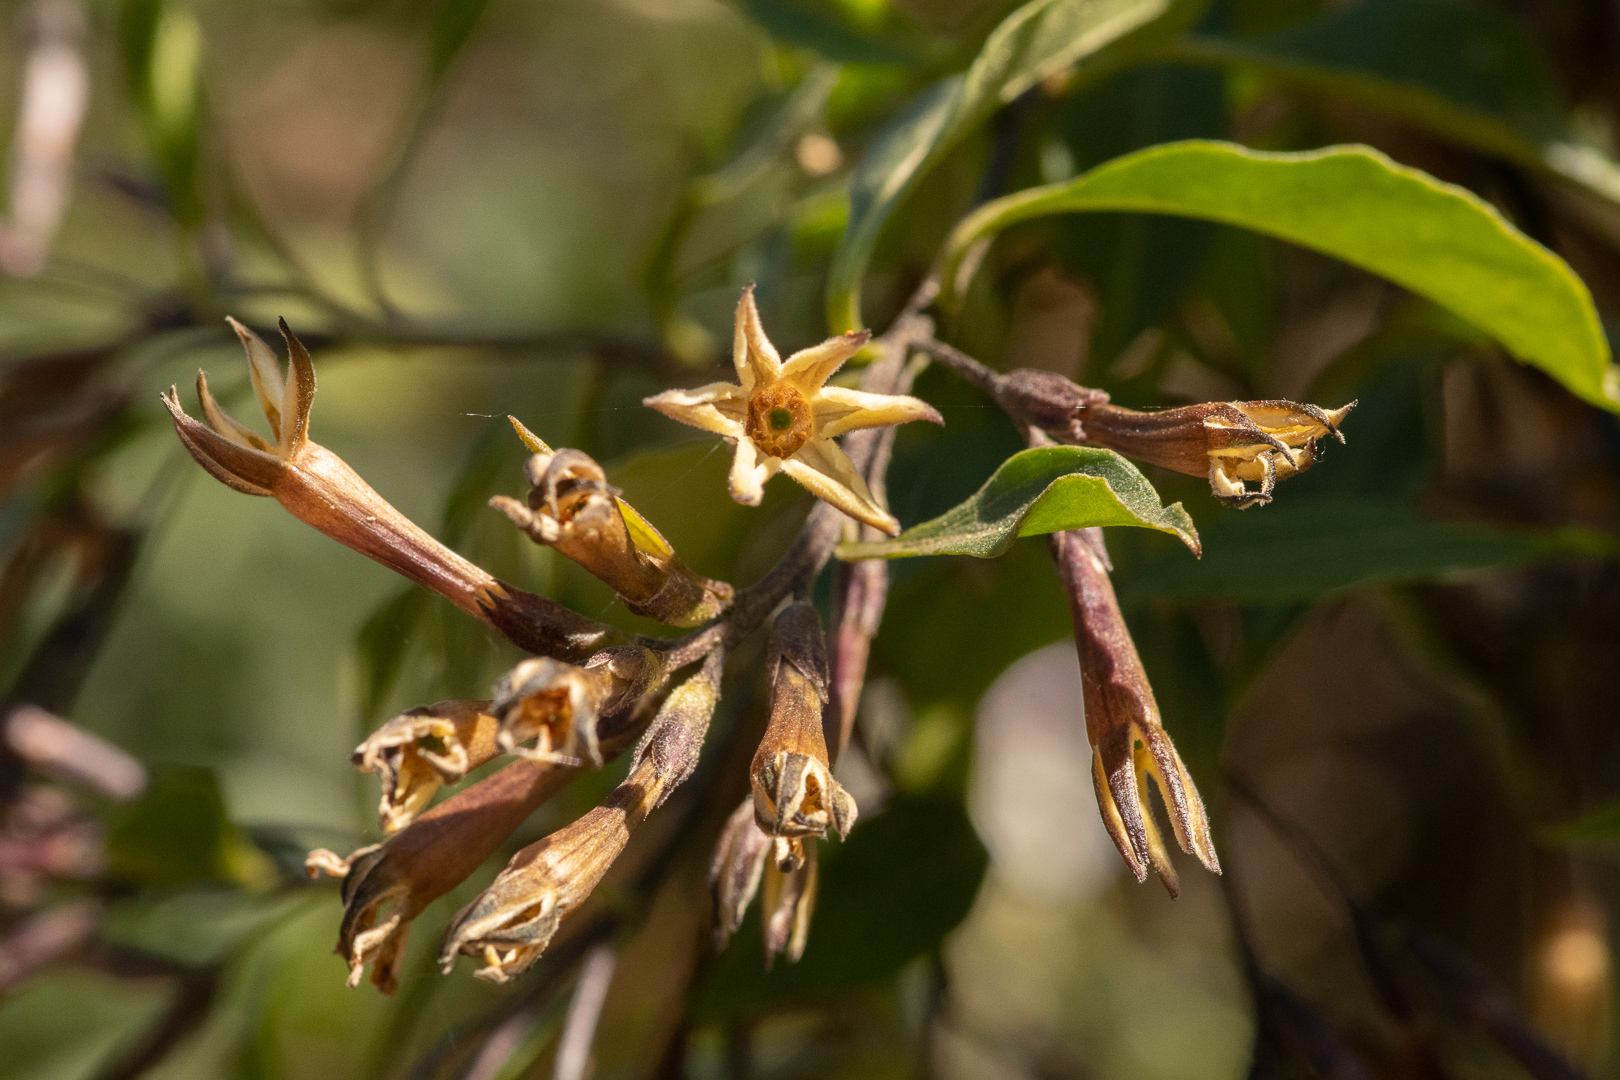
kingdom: Plantae
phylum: Tracheophyta
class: Magnoliopsida
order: Solanales
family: Solanaceae
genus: Cestrum
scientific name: Cestrum parqui
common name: Chilean cestrum
